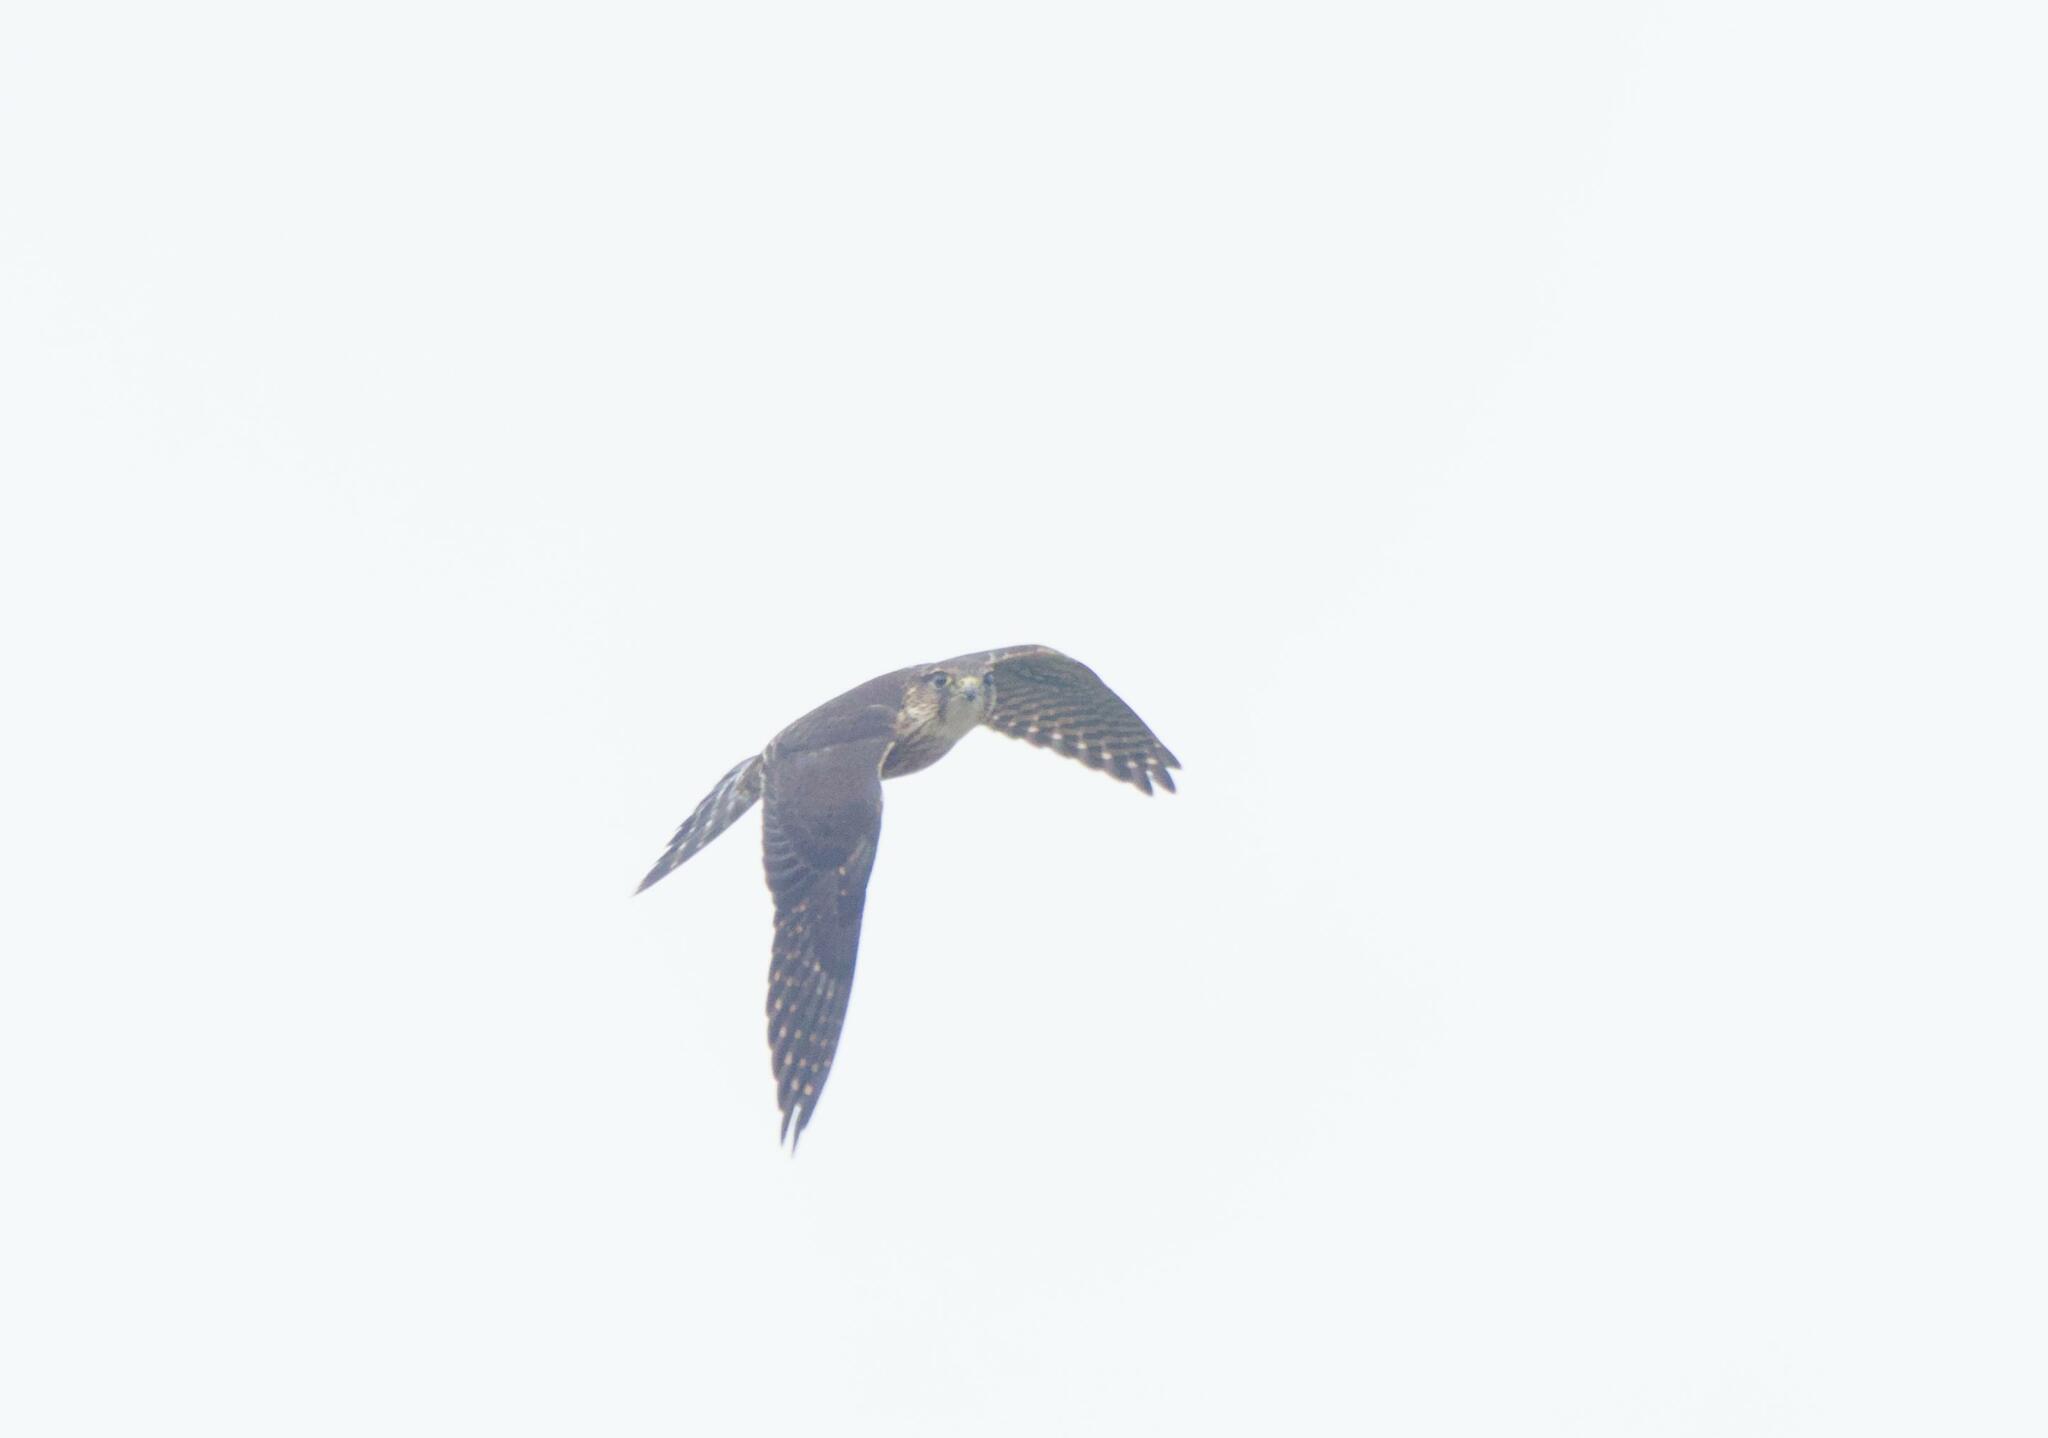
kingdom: Animalia
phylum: Chordata
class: Aves
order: Falconiformes
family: Falconidae
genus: Falco
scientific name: Falco columbarius
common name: Merlin
